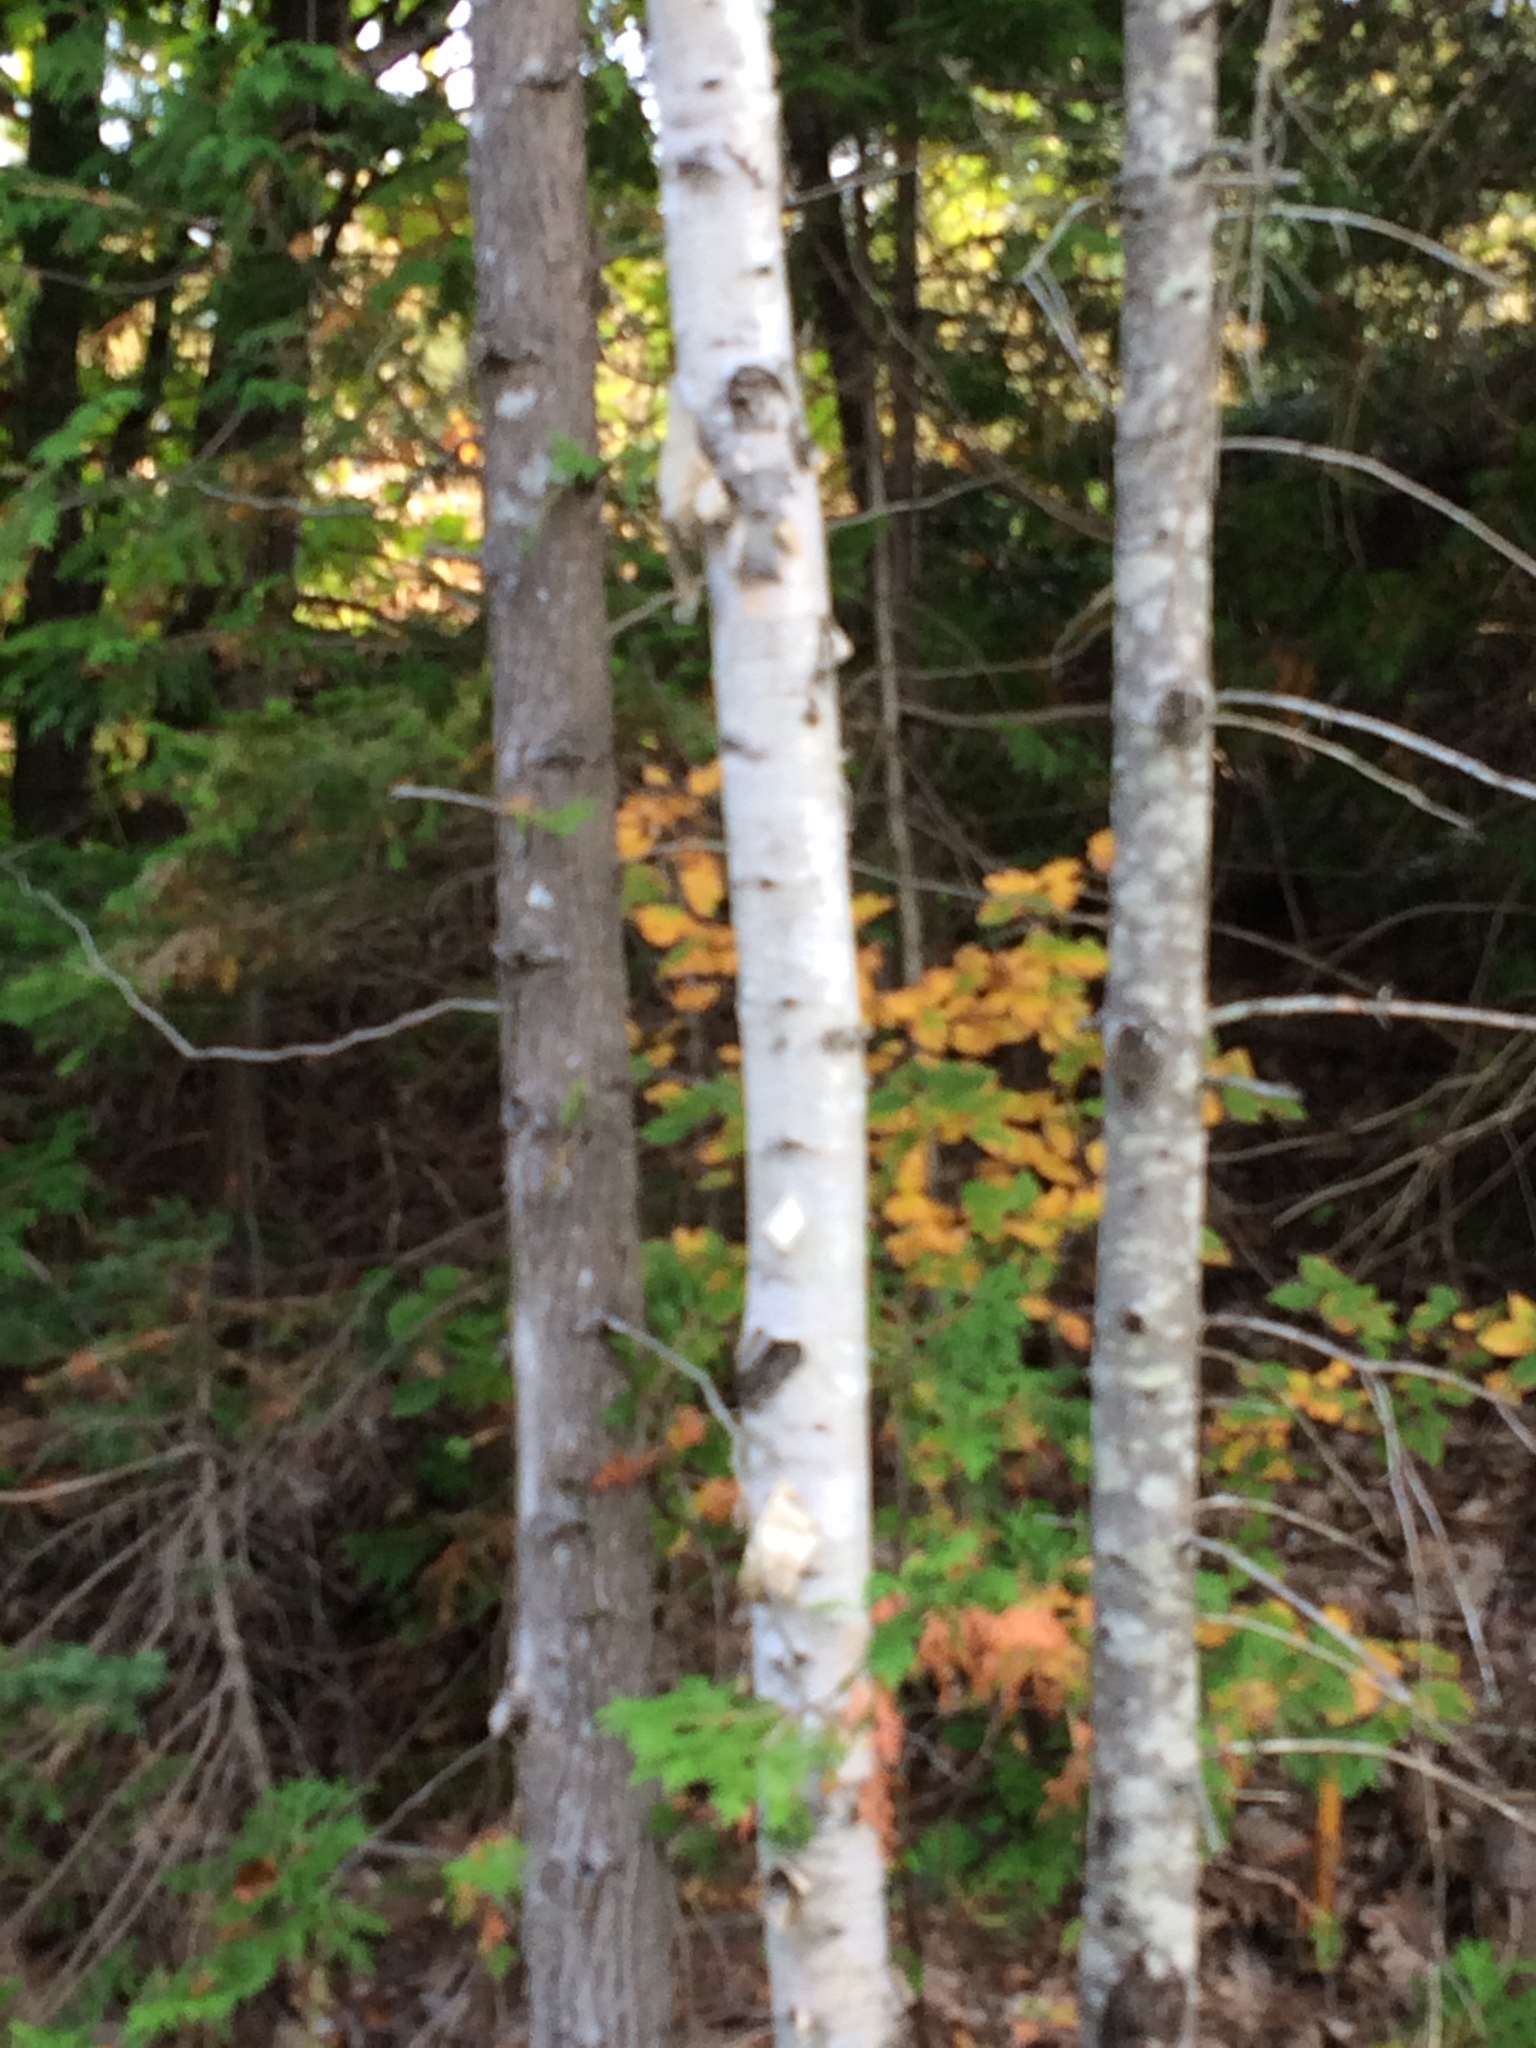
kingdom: Plantae
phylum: Tracheophyta
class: Magnoliopsida
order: Fagales
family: Betulaceae
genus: Betula
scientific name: Betula papyrifera
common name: Paper birch
